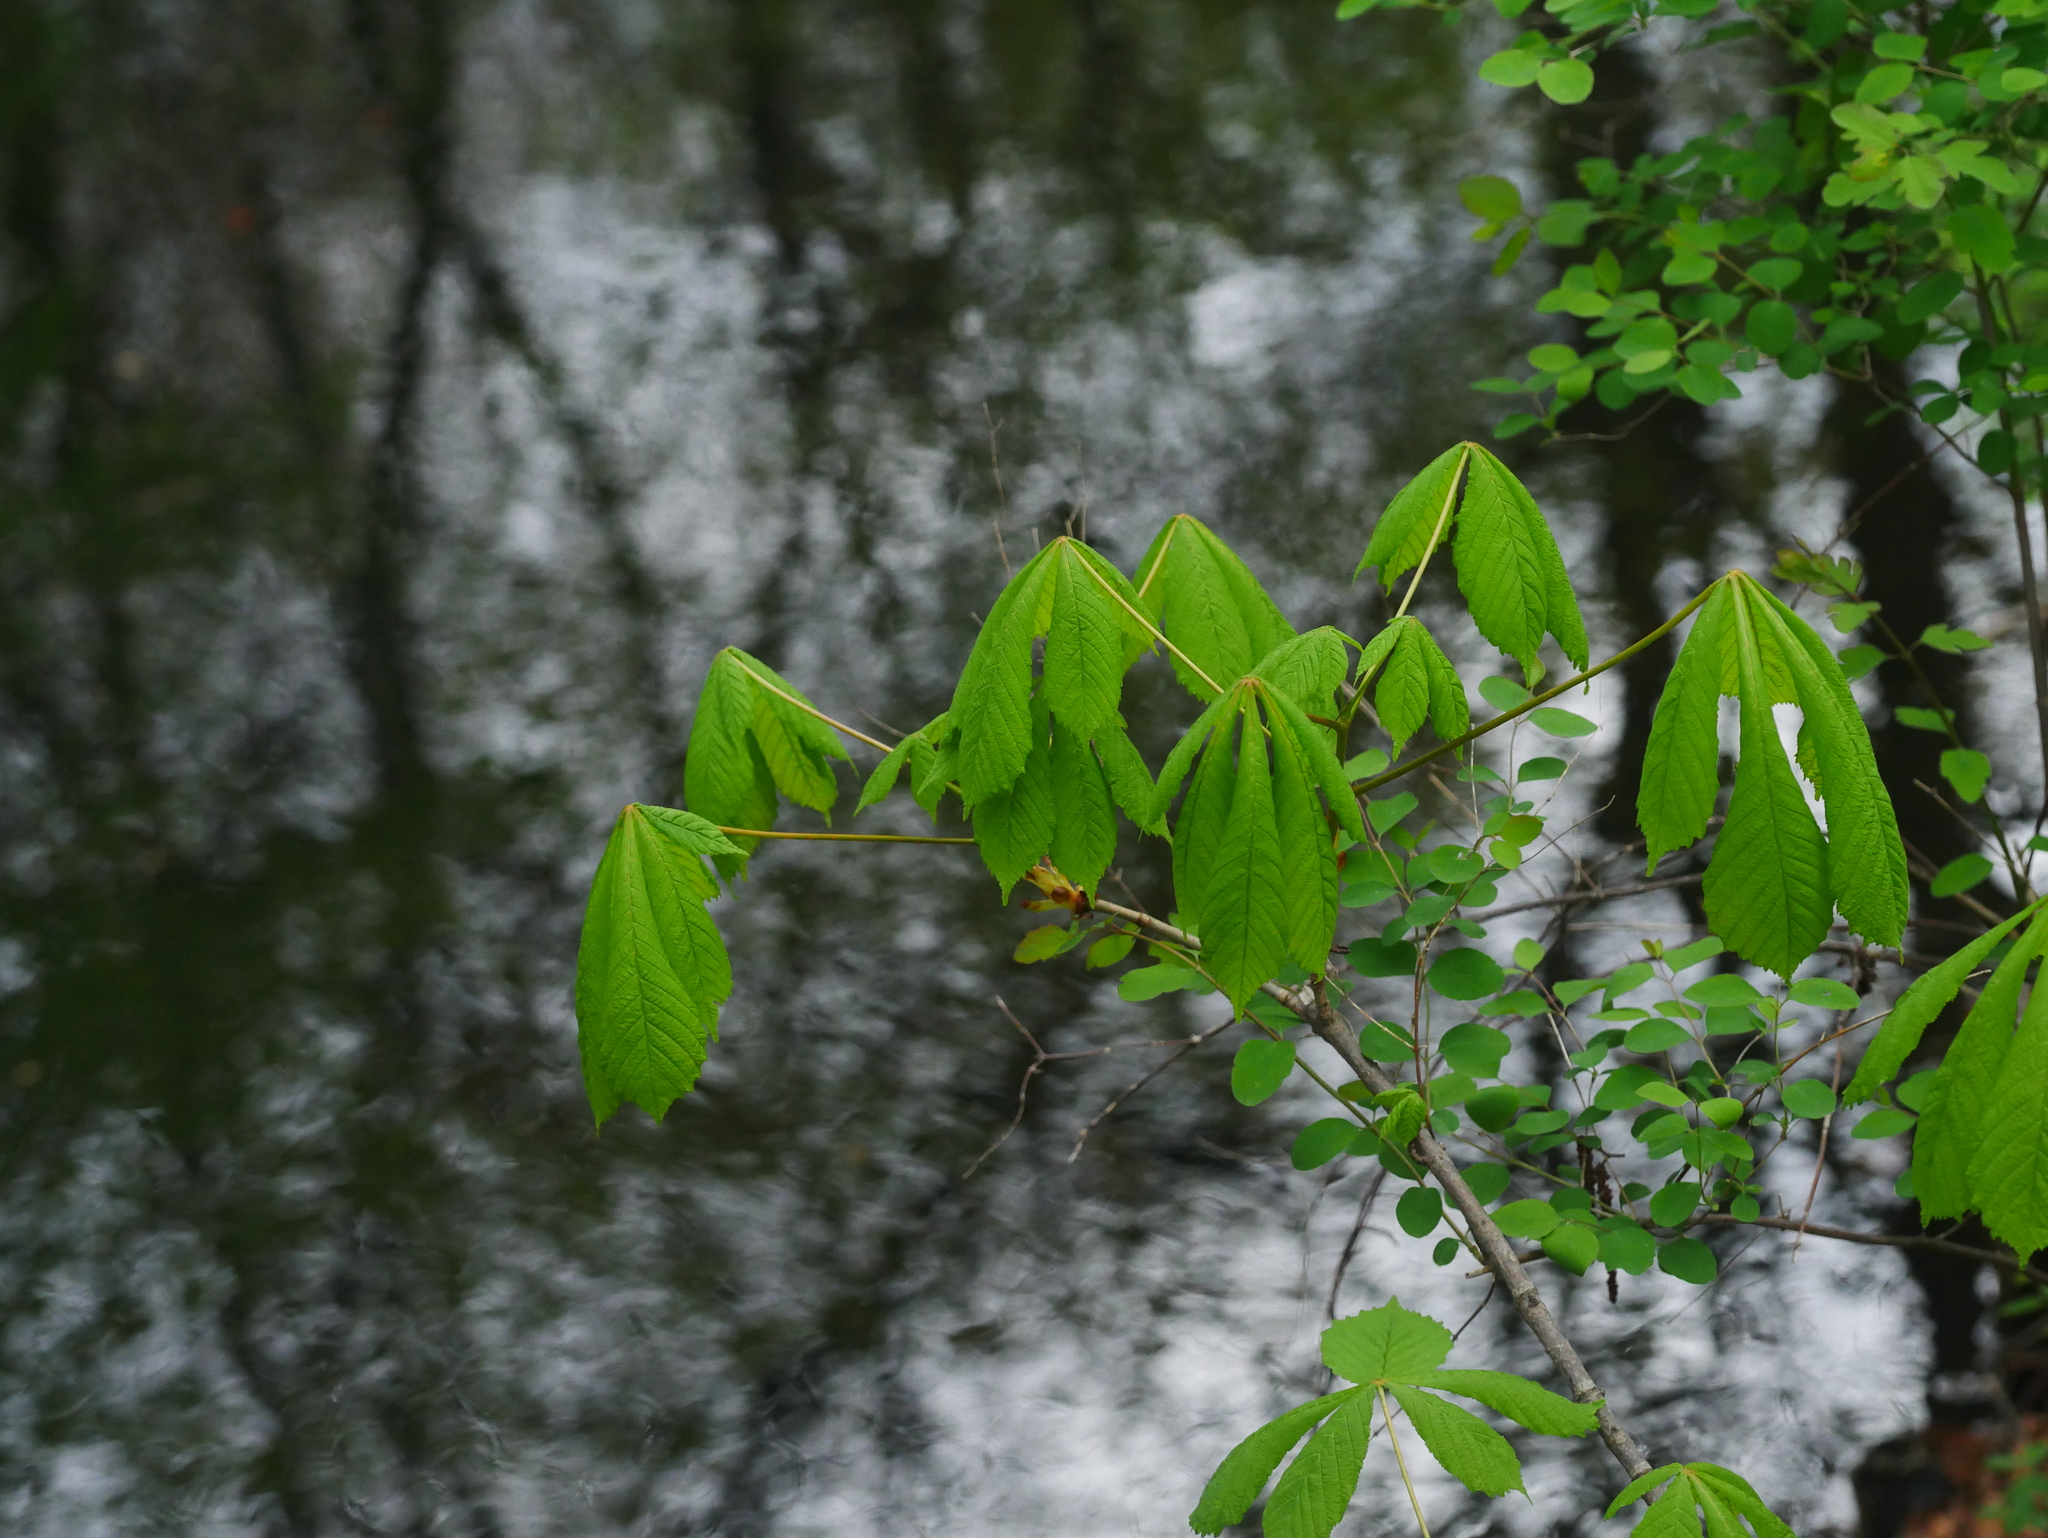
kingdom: Plantae
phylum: Tracheophyta
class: Magnoliopsida
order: Sapindales
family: Sapindaceae
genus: Aesculus
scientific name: Aesculus hippocastanum
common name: Horse-chestnut
